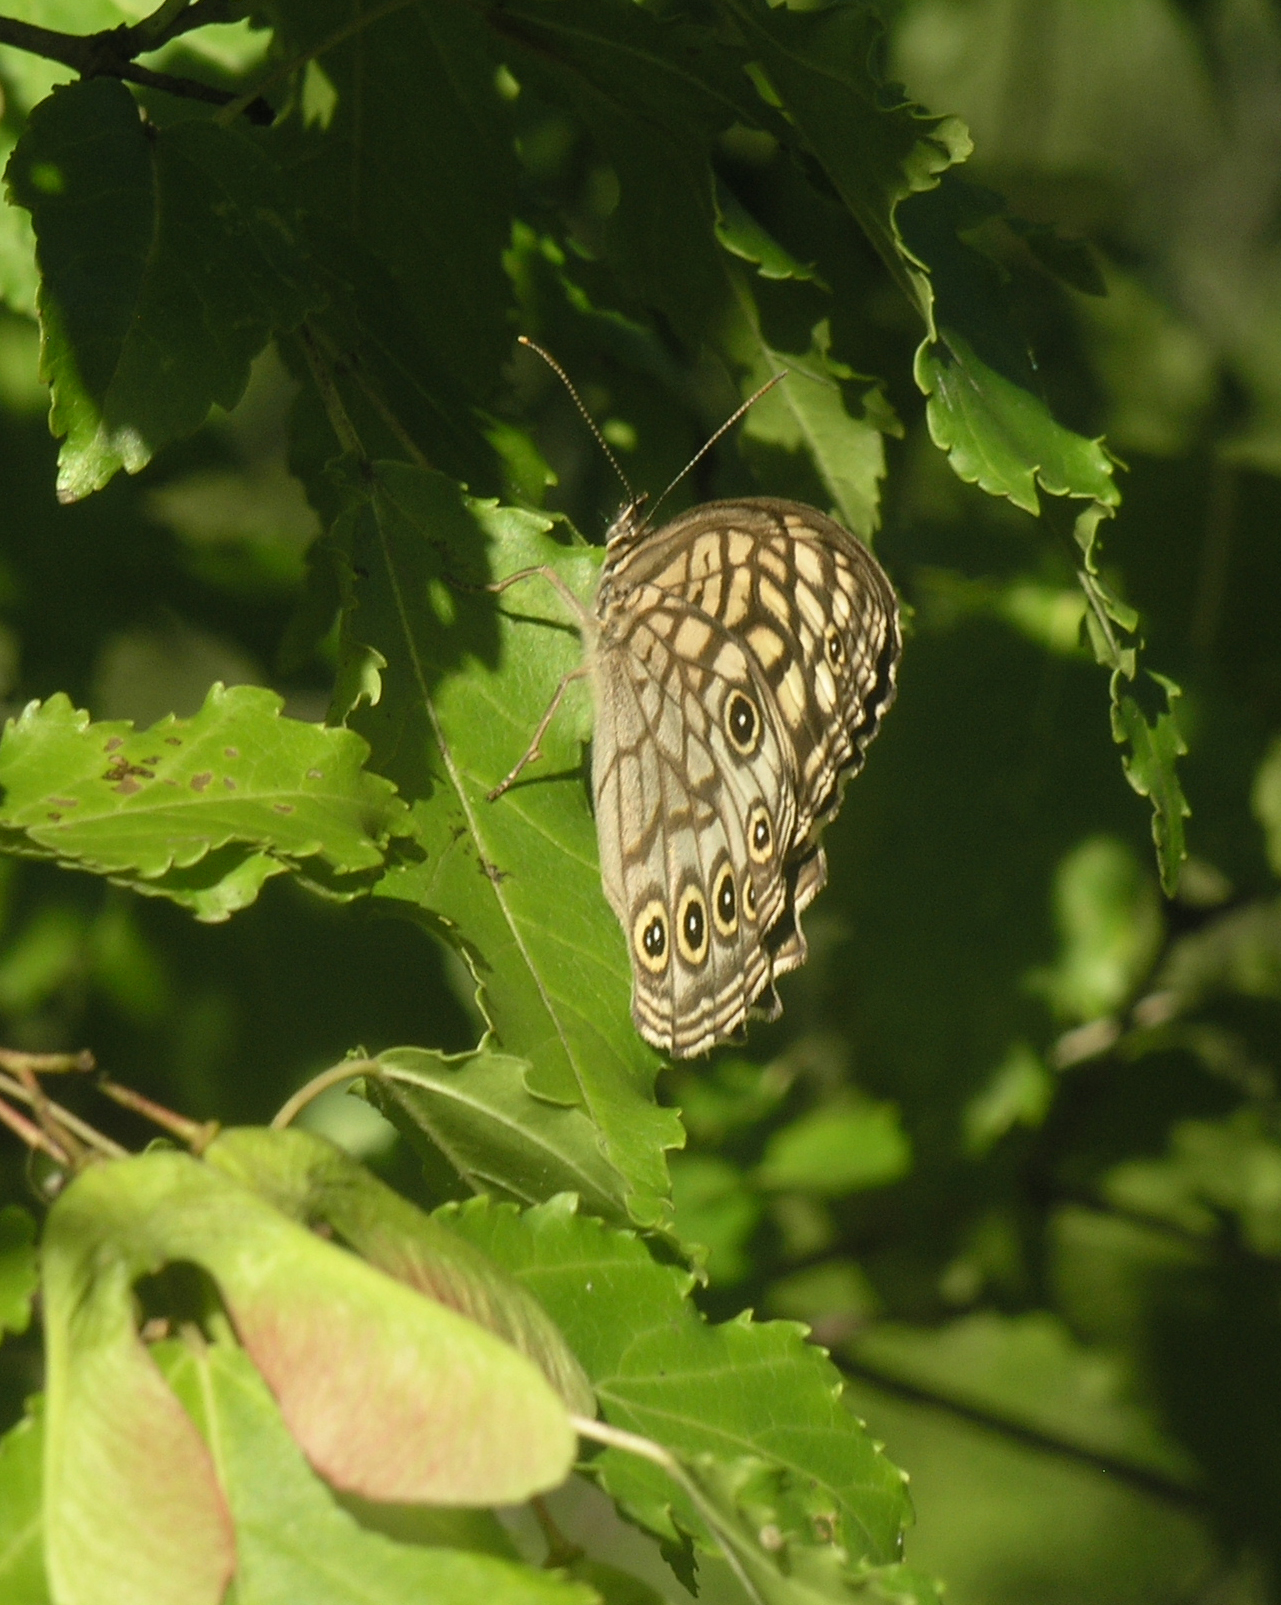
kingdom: Animalia
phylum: Arthropoda
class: Insecta
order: Lepidoptera
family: Nymphalidae
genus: Kirinia
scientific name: Kirinia epimenides
